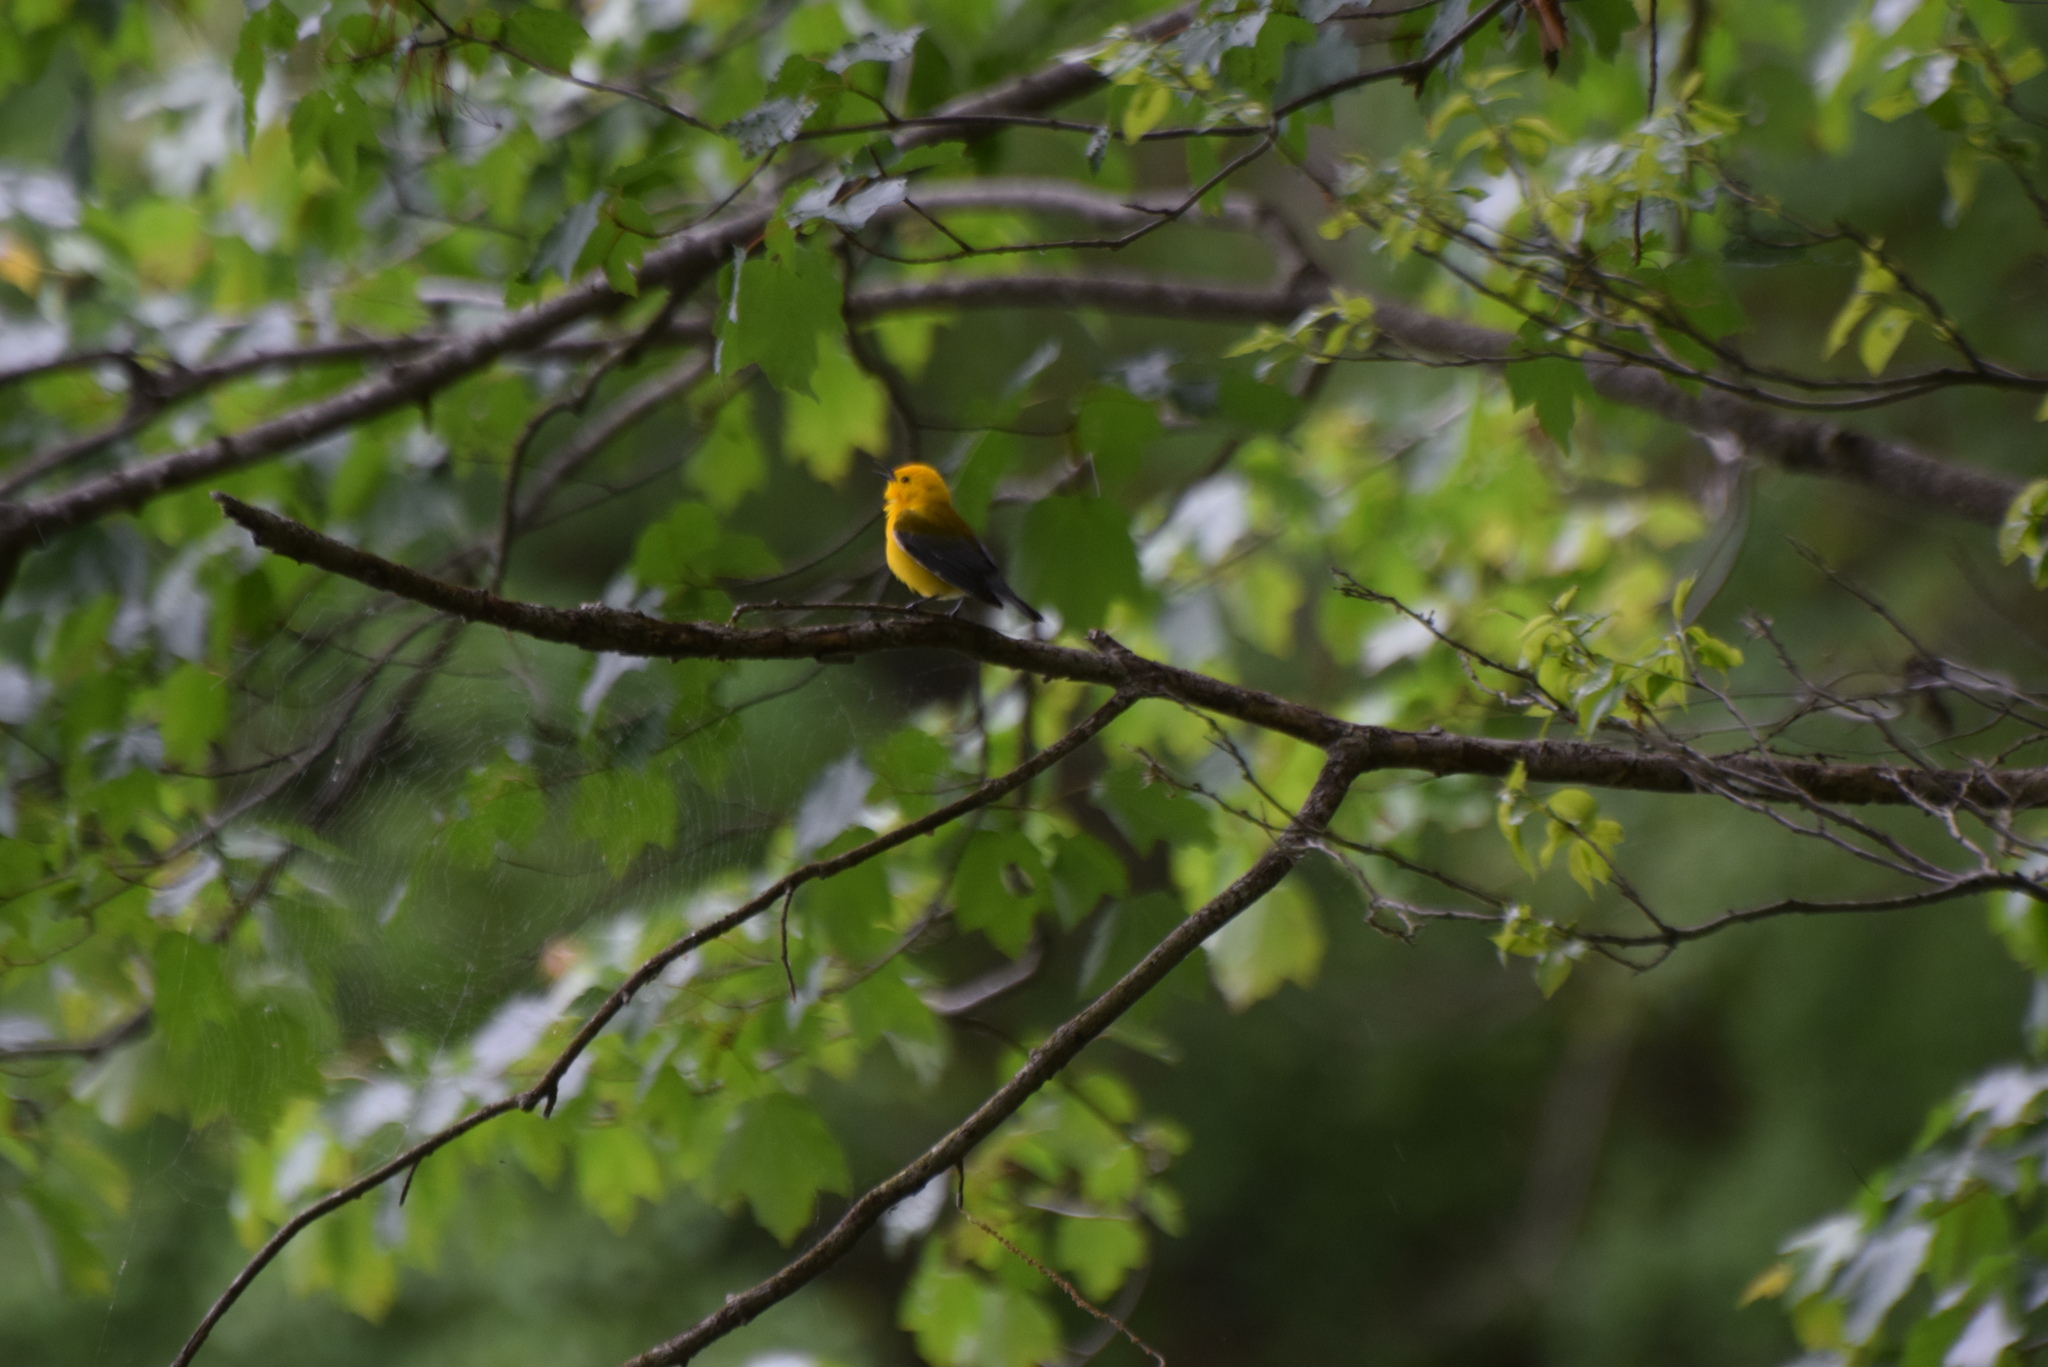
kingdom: Animalia
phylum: Chordata
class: Aves
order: Passeriformes
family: Parulidae
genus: Protonotaria
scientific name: Protonotaria citrea
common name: Prothonotary warbler
